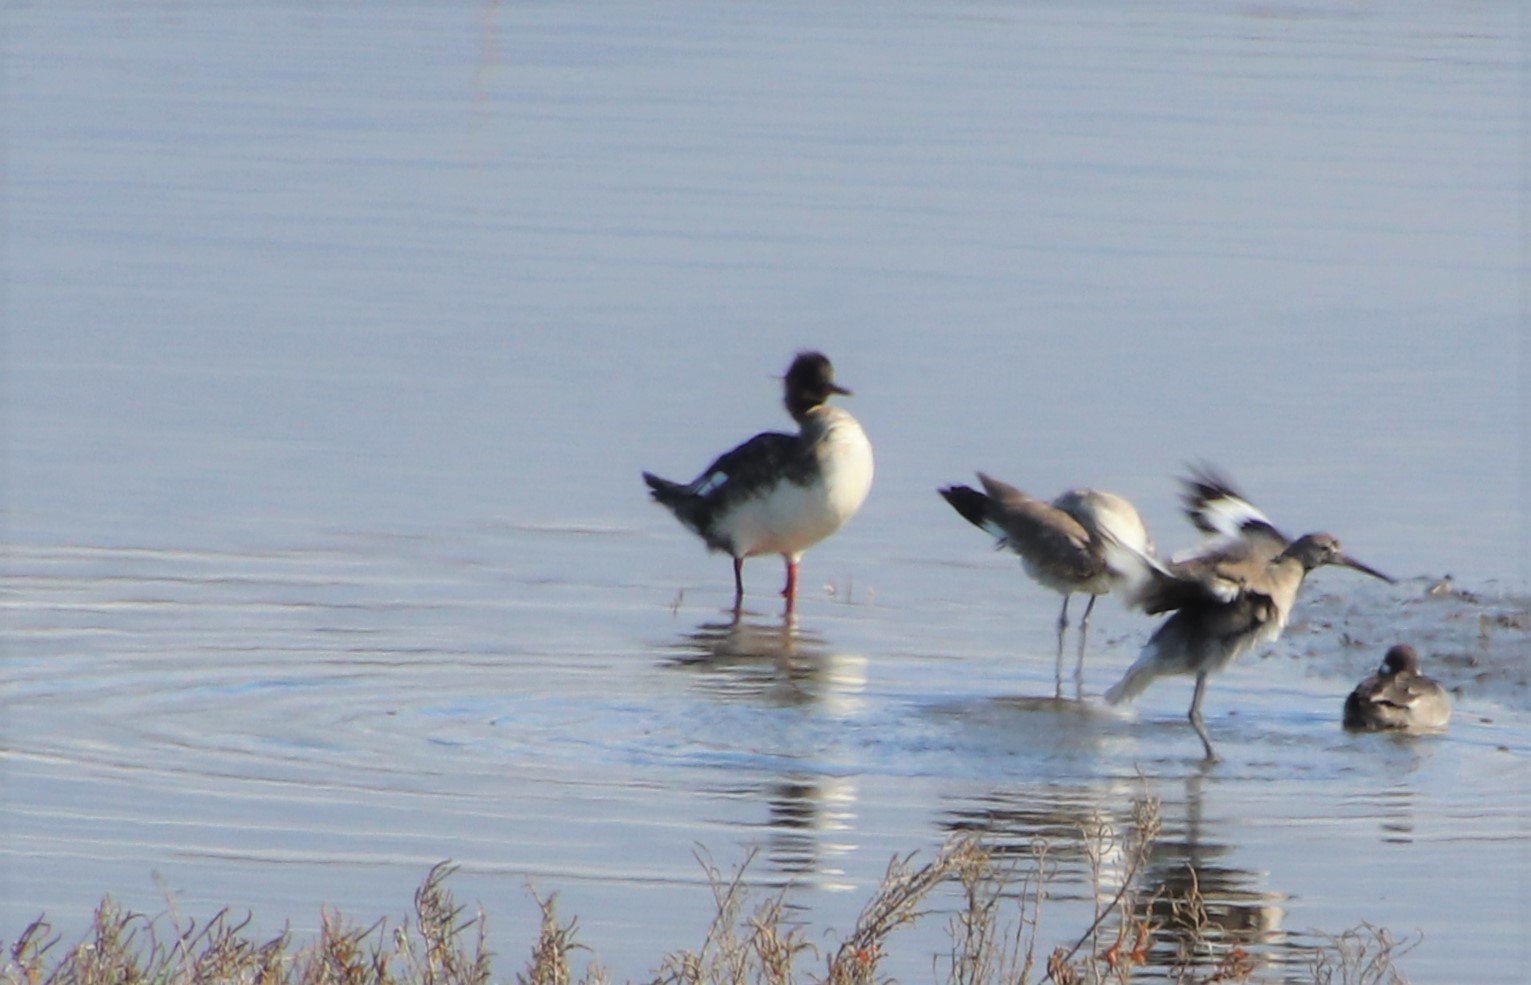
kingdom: Animalia
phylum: Chordata
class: Aves
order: Anseriformes
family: Anatidae
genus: Mergus
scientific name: Mergus serrator
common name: Red-breasted merganser
